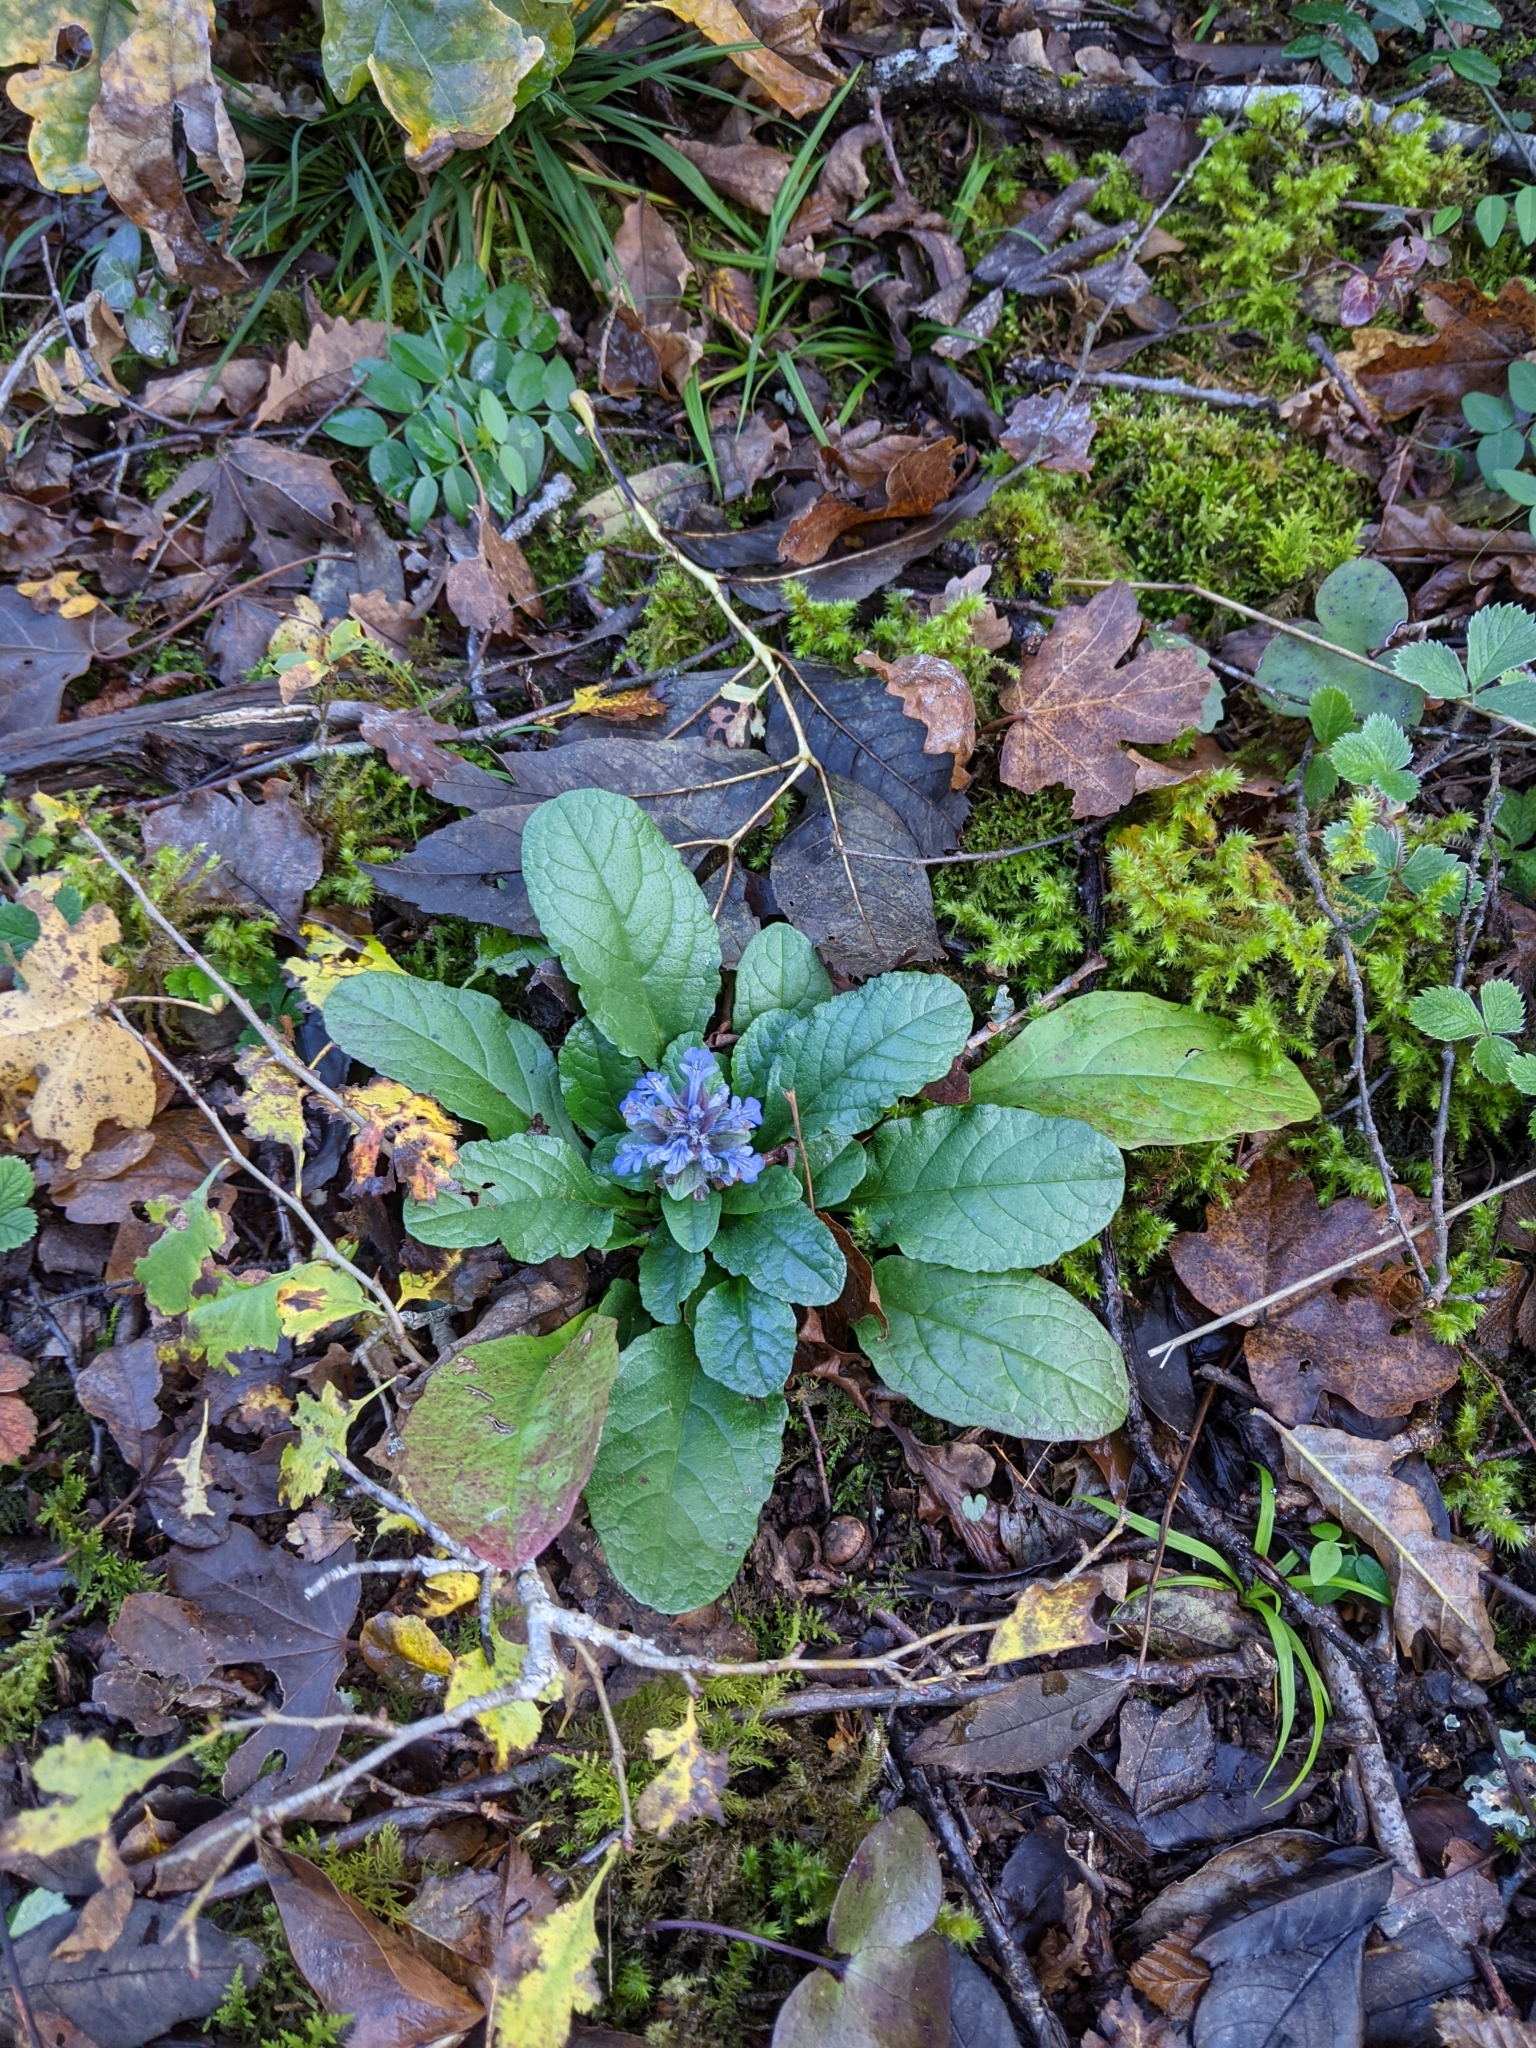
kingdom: Plantae
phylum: Tracheophyta
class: Magnoliopsida
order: Lamiales
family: Lamiaceae
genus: Ajuga
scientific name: Ajuga reptans
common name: Bugle
